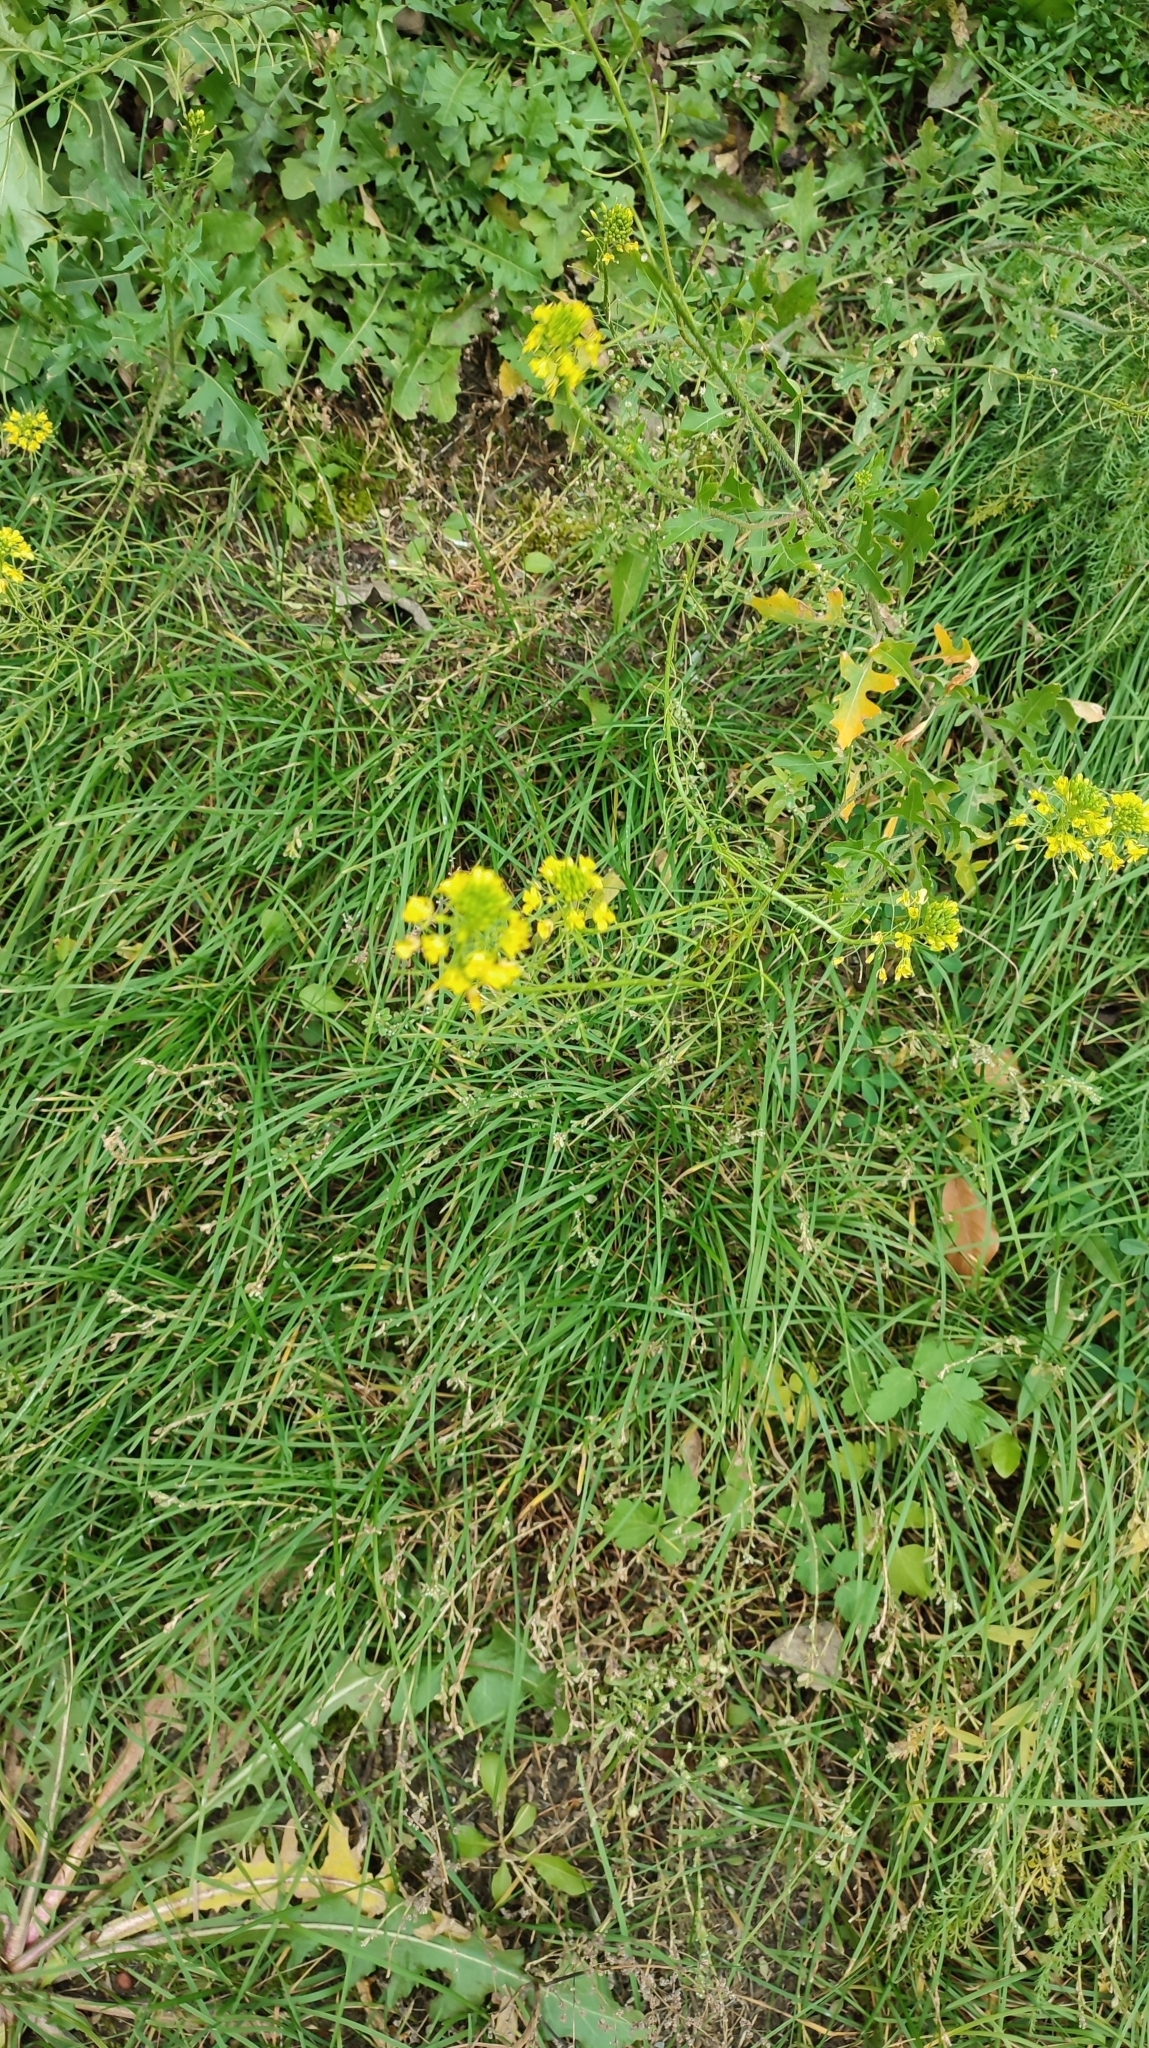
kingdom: Plantae
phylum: Tracheophyta
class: Magnoliopsida
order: Brassicales
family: Brassicaceae
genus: Sisymbrium
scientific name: Sisymbrium loeselii
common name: False london-rocket
